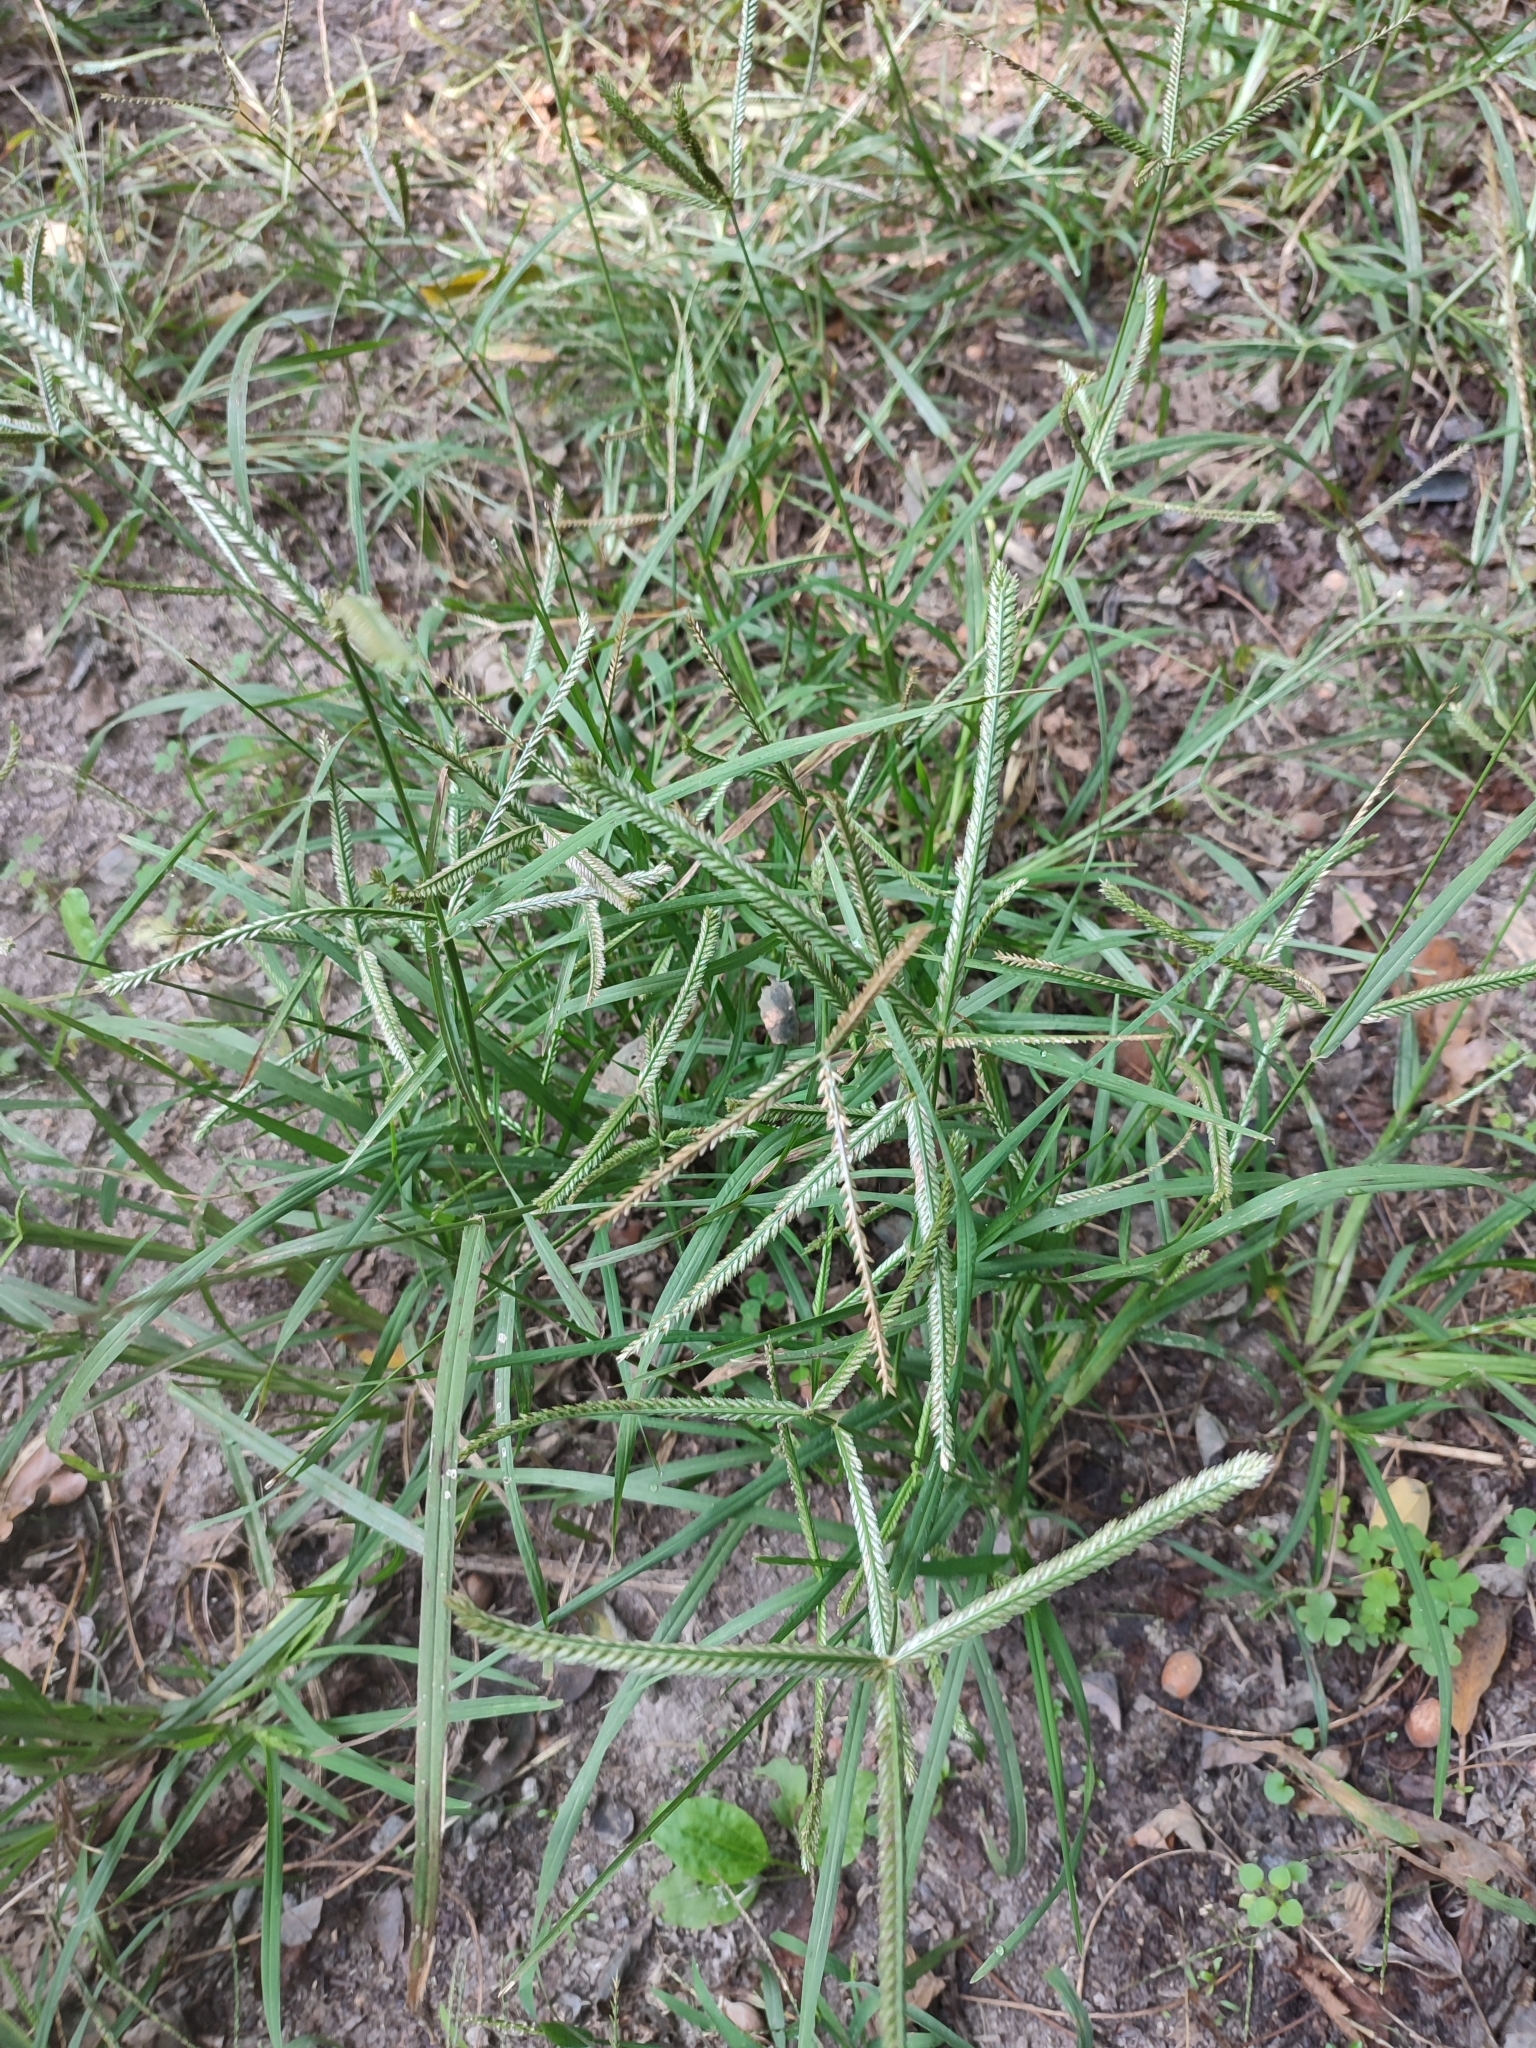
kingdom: Plantae
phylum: Tracheophyta
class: Liliopsida
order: Poales
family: Poaceae
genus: Eleusine
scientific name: Eleusine indica
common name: Yard-grass
